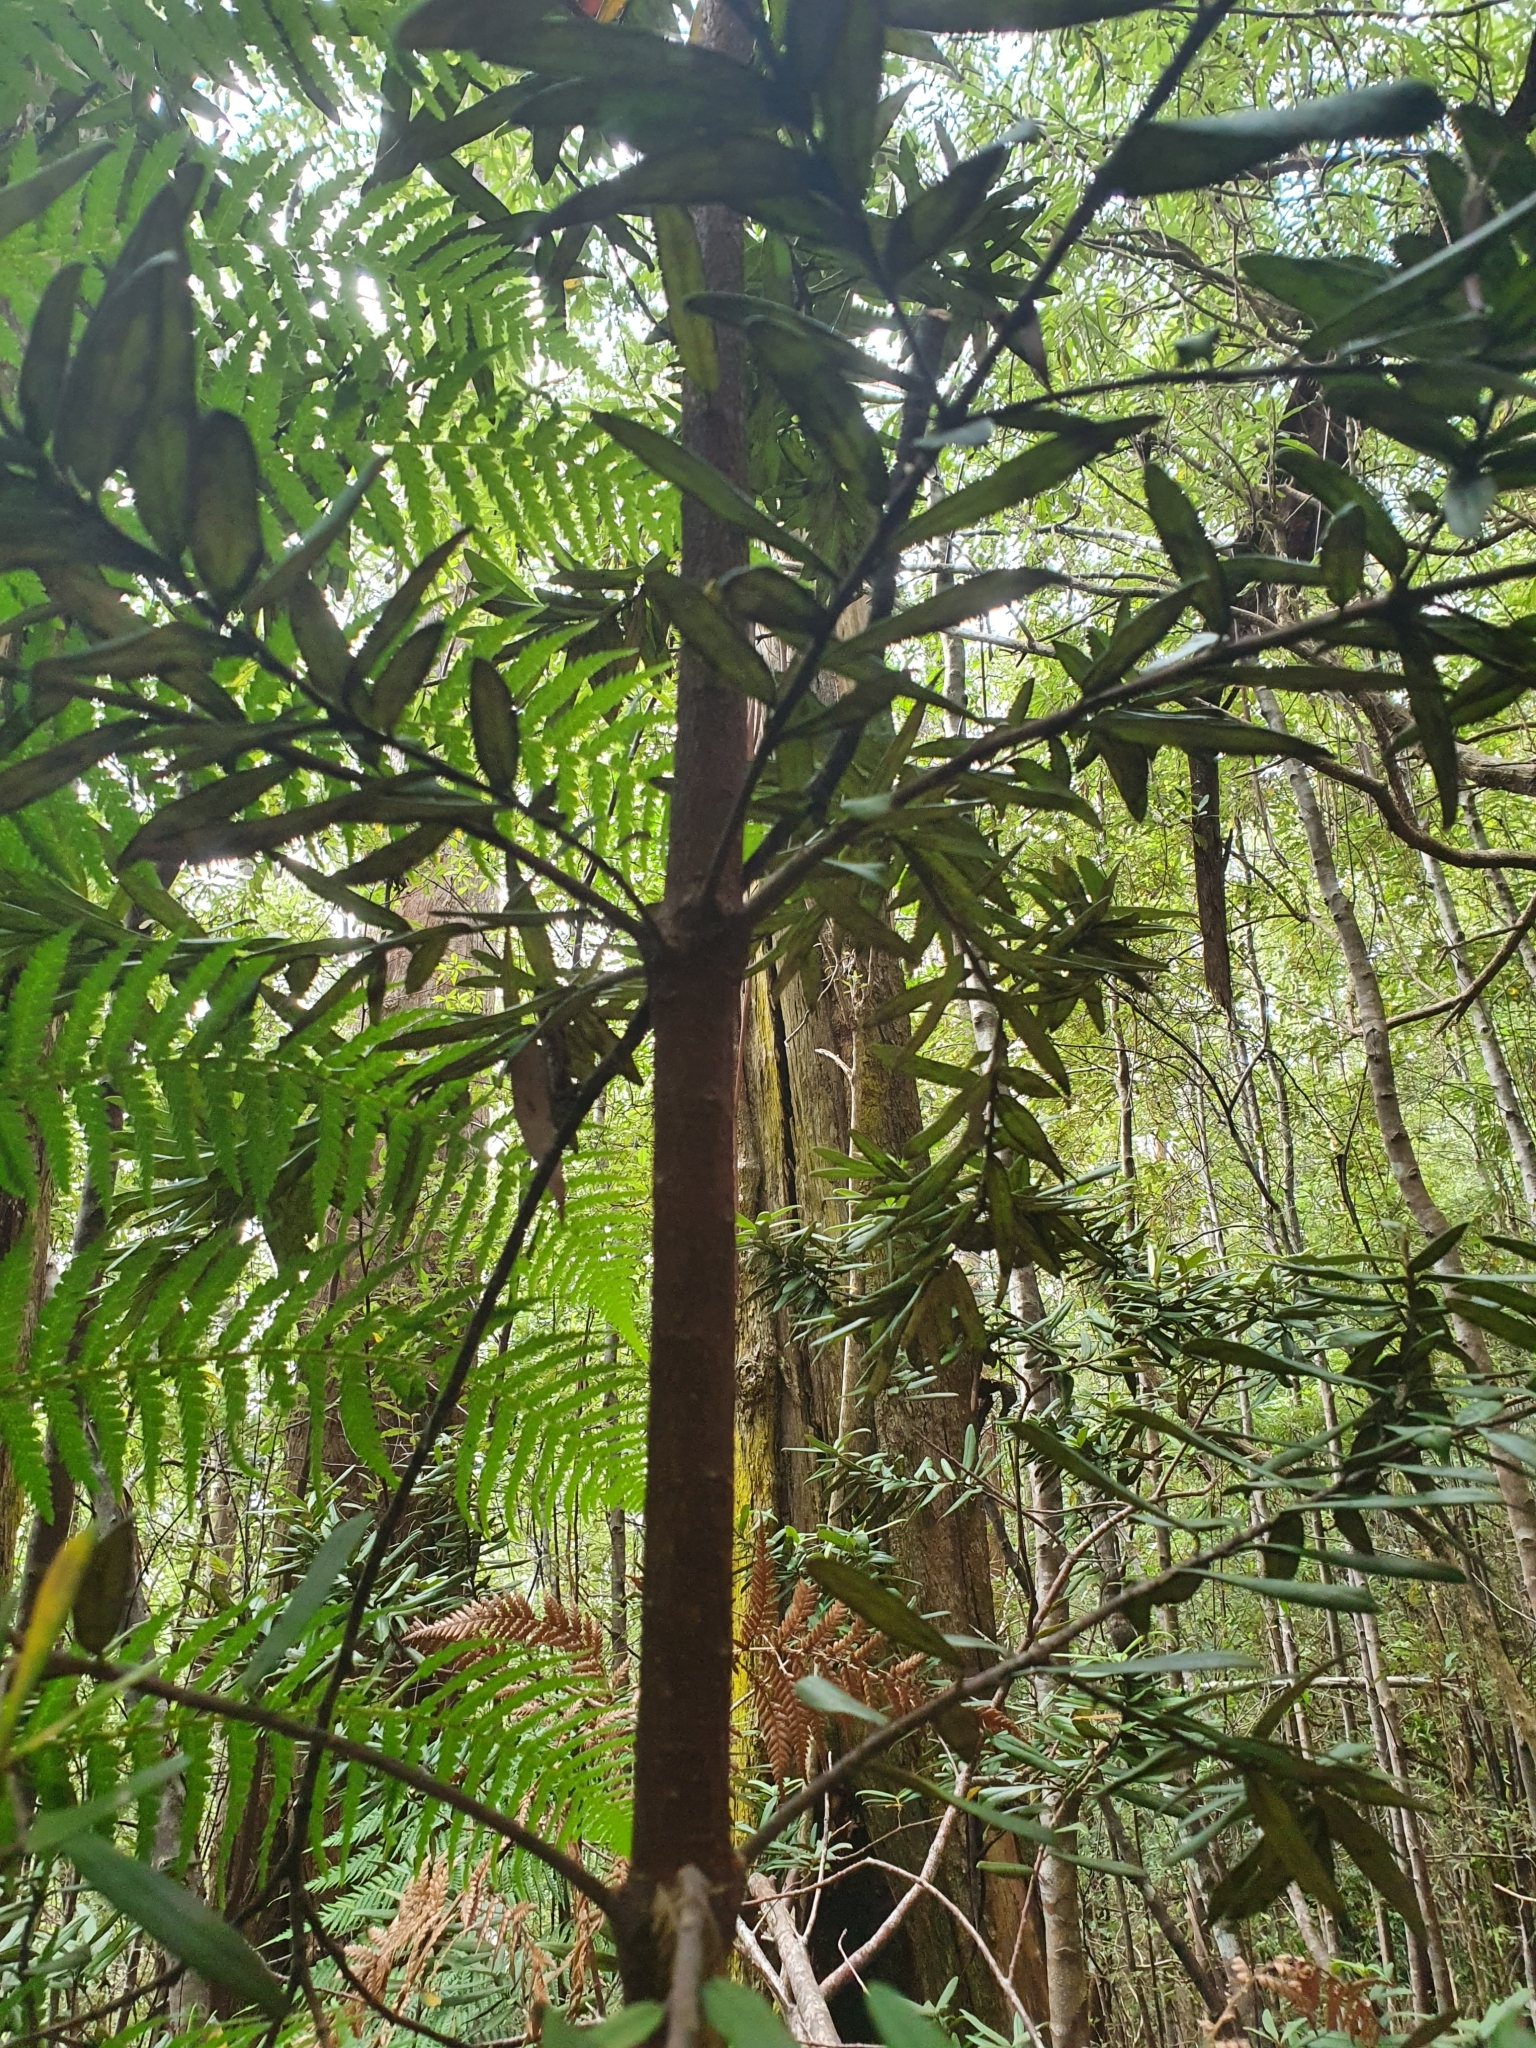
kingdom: Plantae
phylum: Tracheophyta
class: Magnoliopsida
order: Apiales
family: Pittosporaceae
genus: Pittosporum
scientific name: Pittosporum bicolor
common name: Tallowwood
